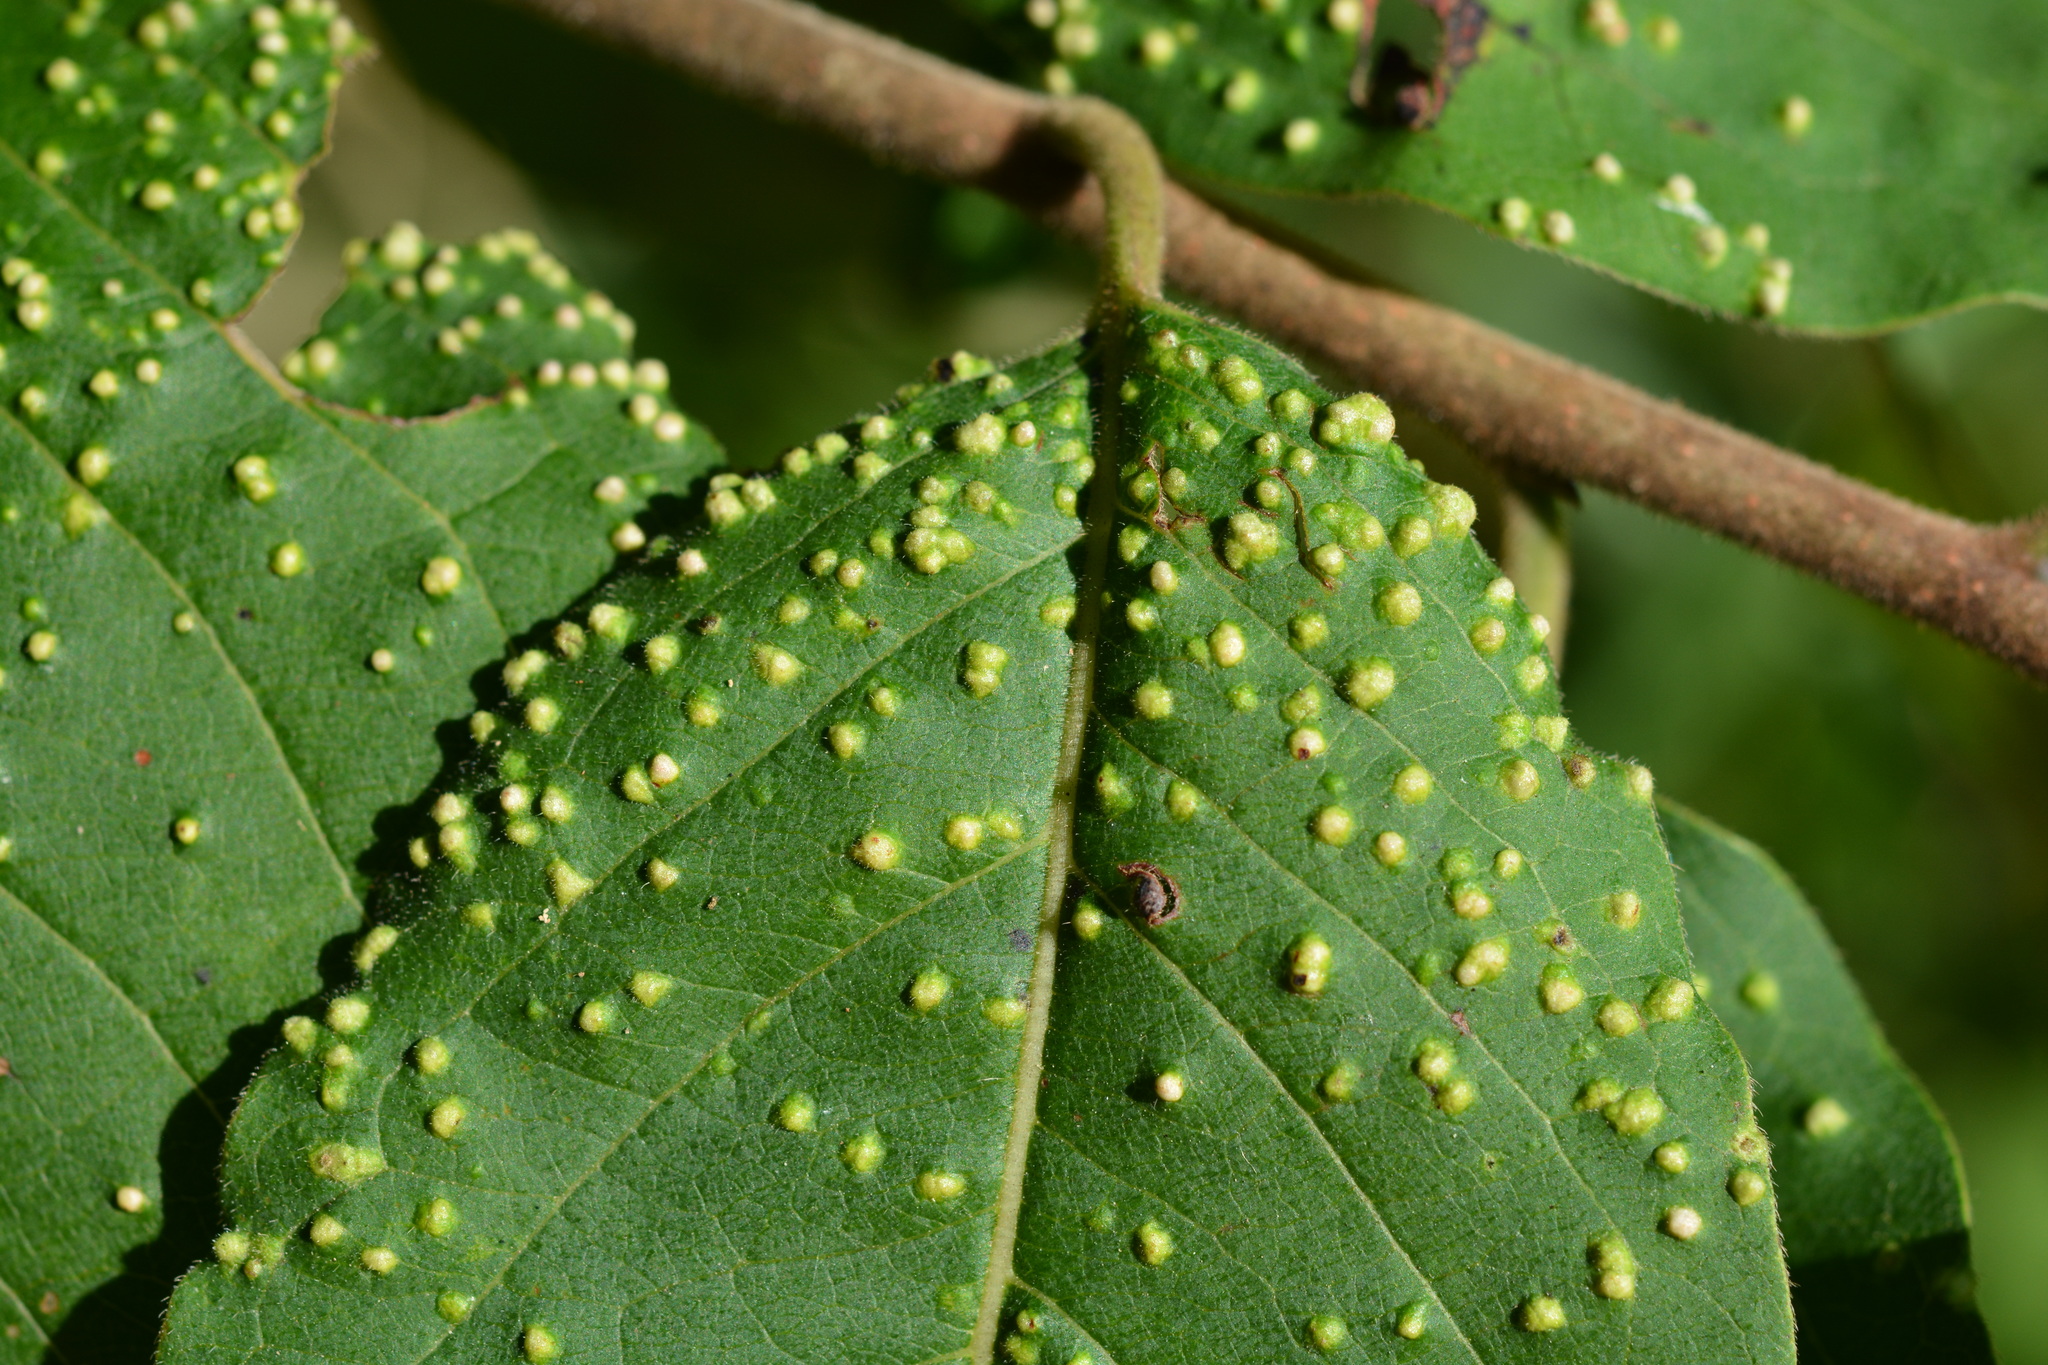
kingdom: Animalia
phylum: Arthropoda
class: Arachnida
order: Trombidiformes
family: Eriophyidae
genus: Aceria
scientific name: Aceria
